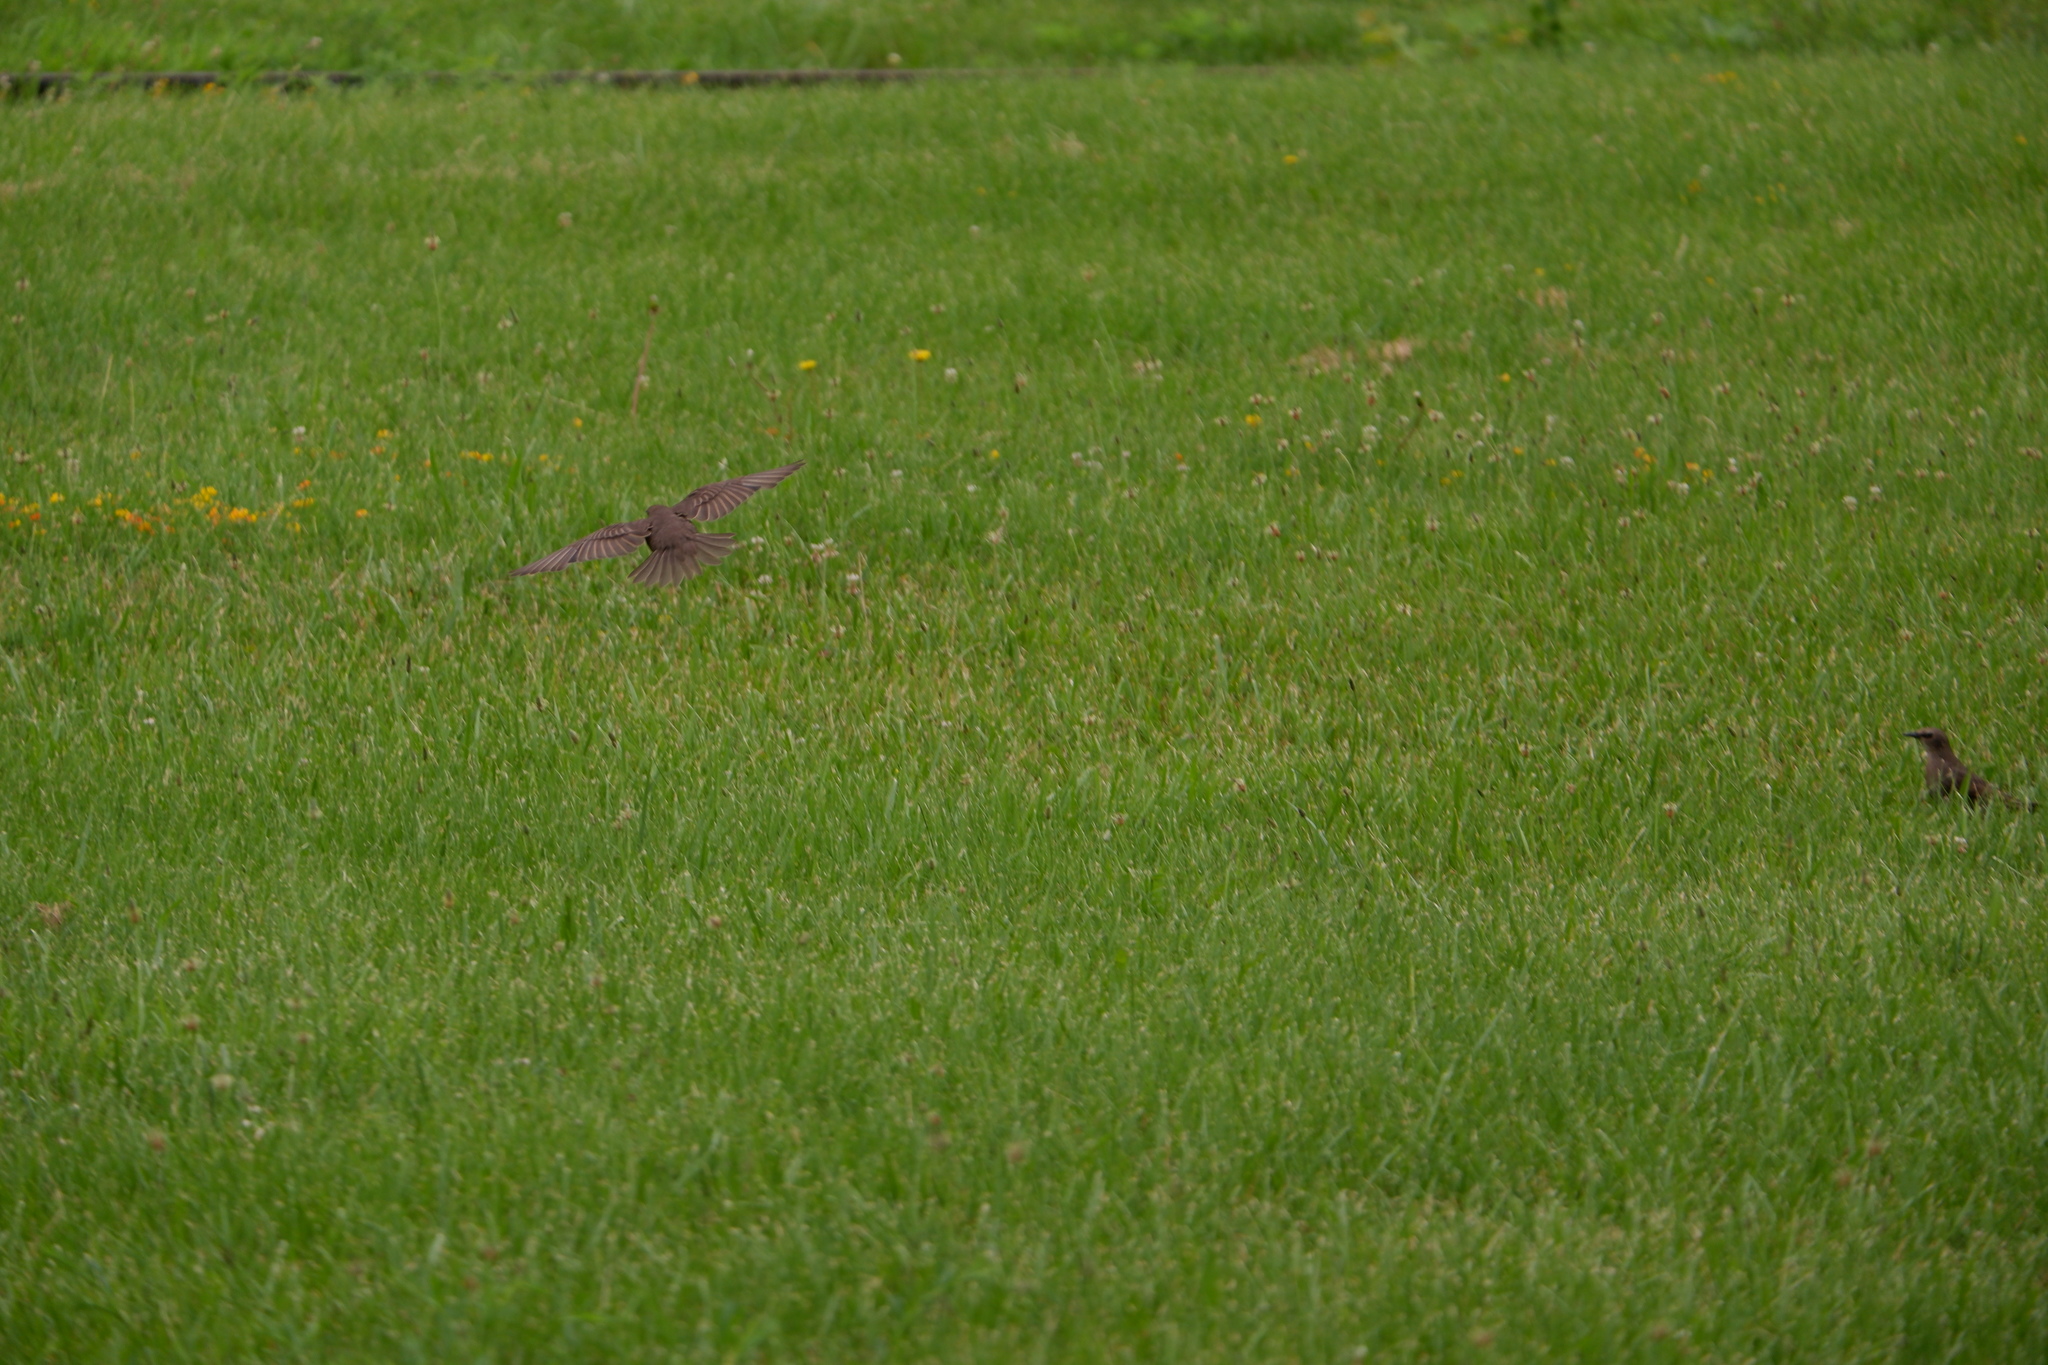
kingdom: Animalia
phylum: Chordata
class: Aves
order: Passeriformes
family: Sturnidae
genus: Sturnus
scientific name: Sturnus vulgaris
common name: Common starling
